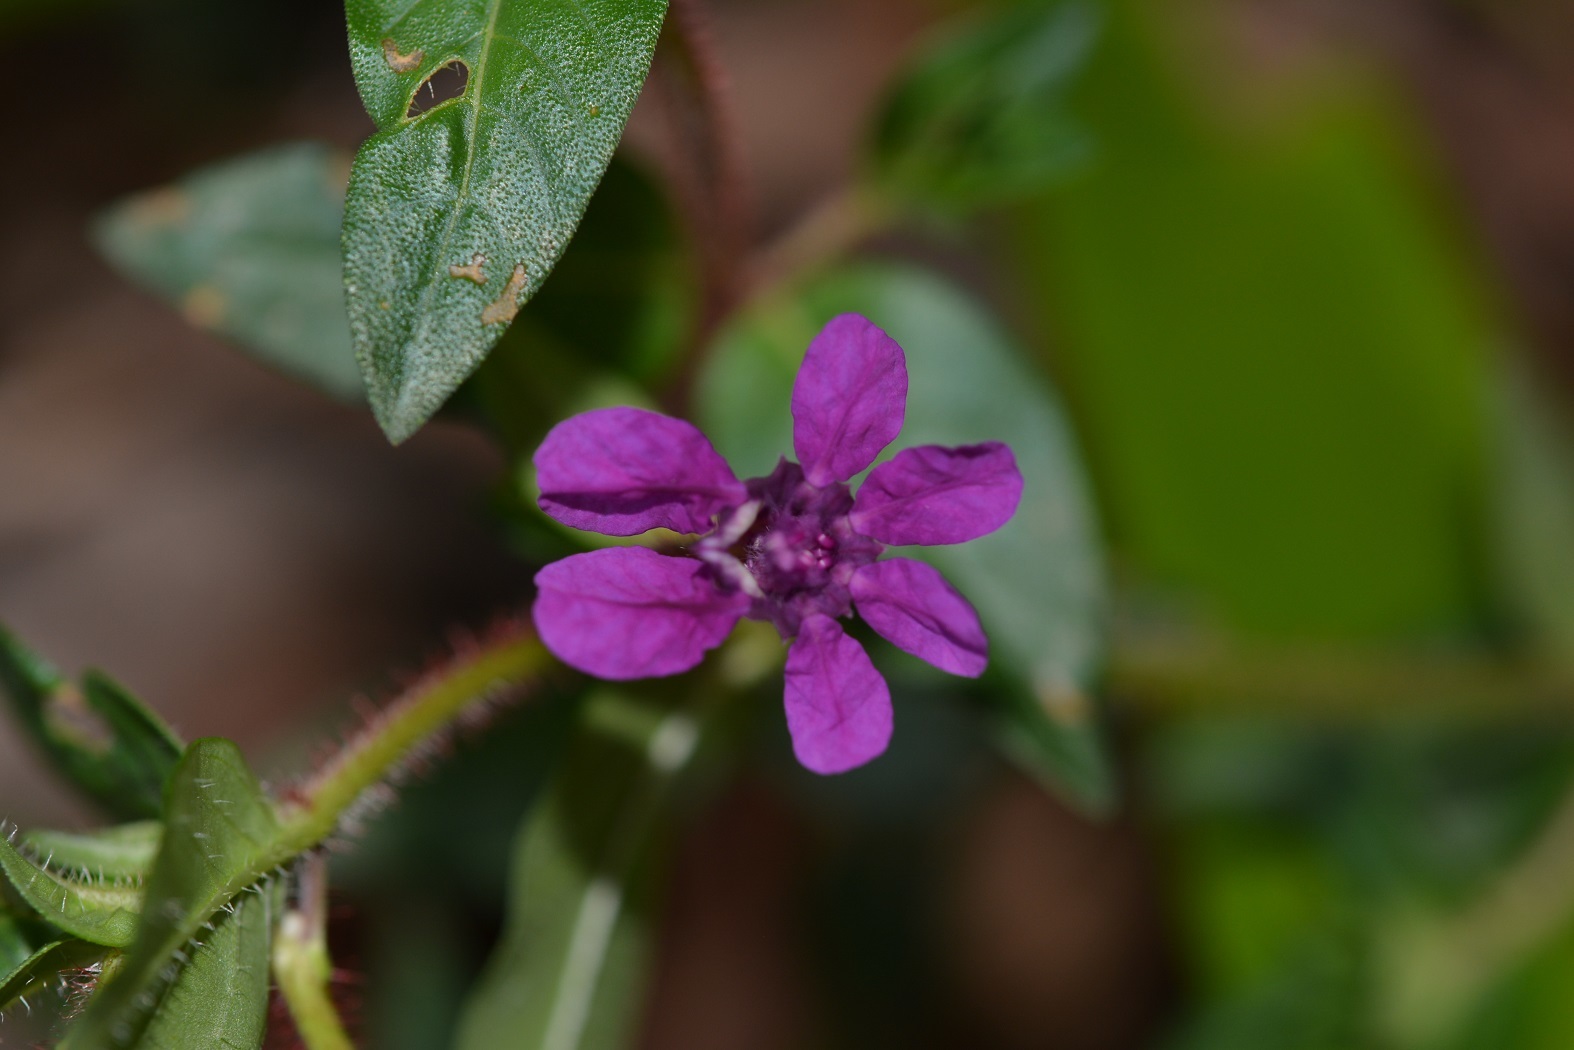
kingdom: Plantae
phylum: Tracheophyta
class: Magnoliopsida
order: Myrtales
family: Lythraceae
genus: Cuphea
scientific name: Cuphea aequipetala
